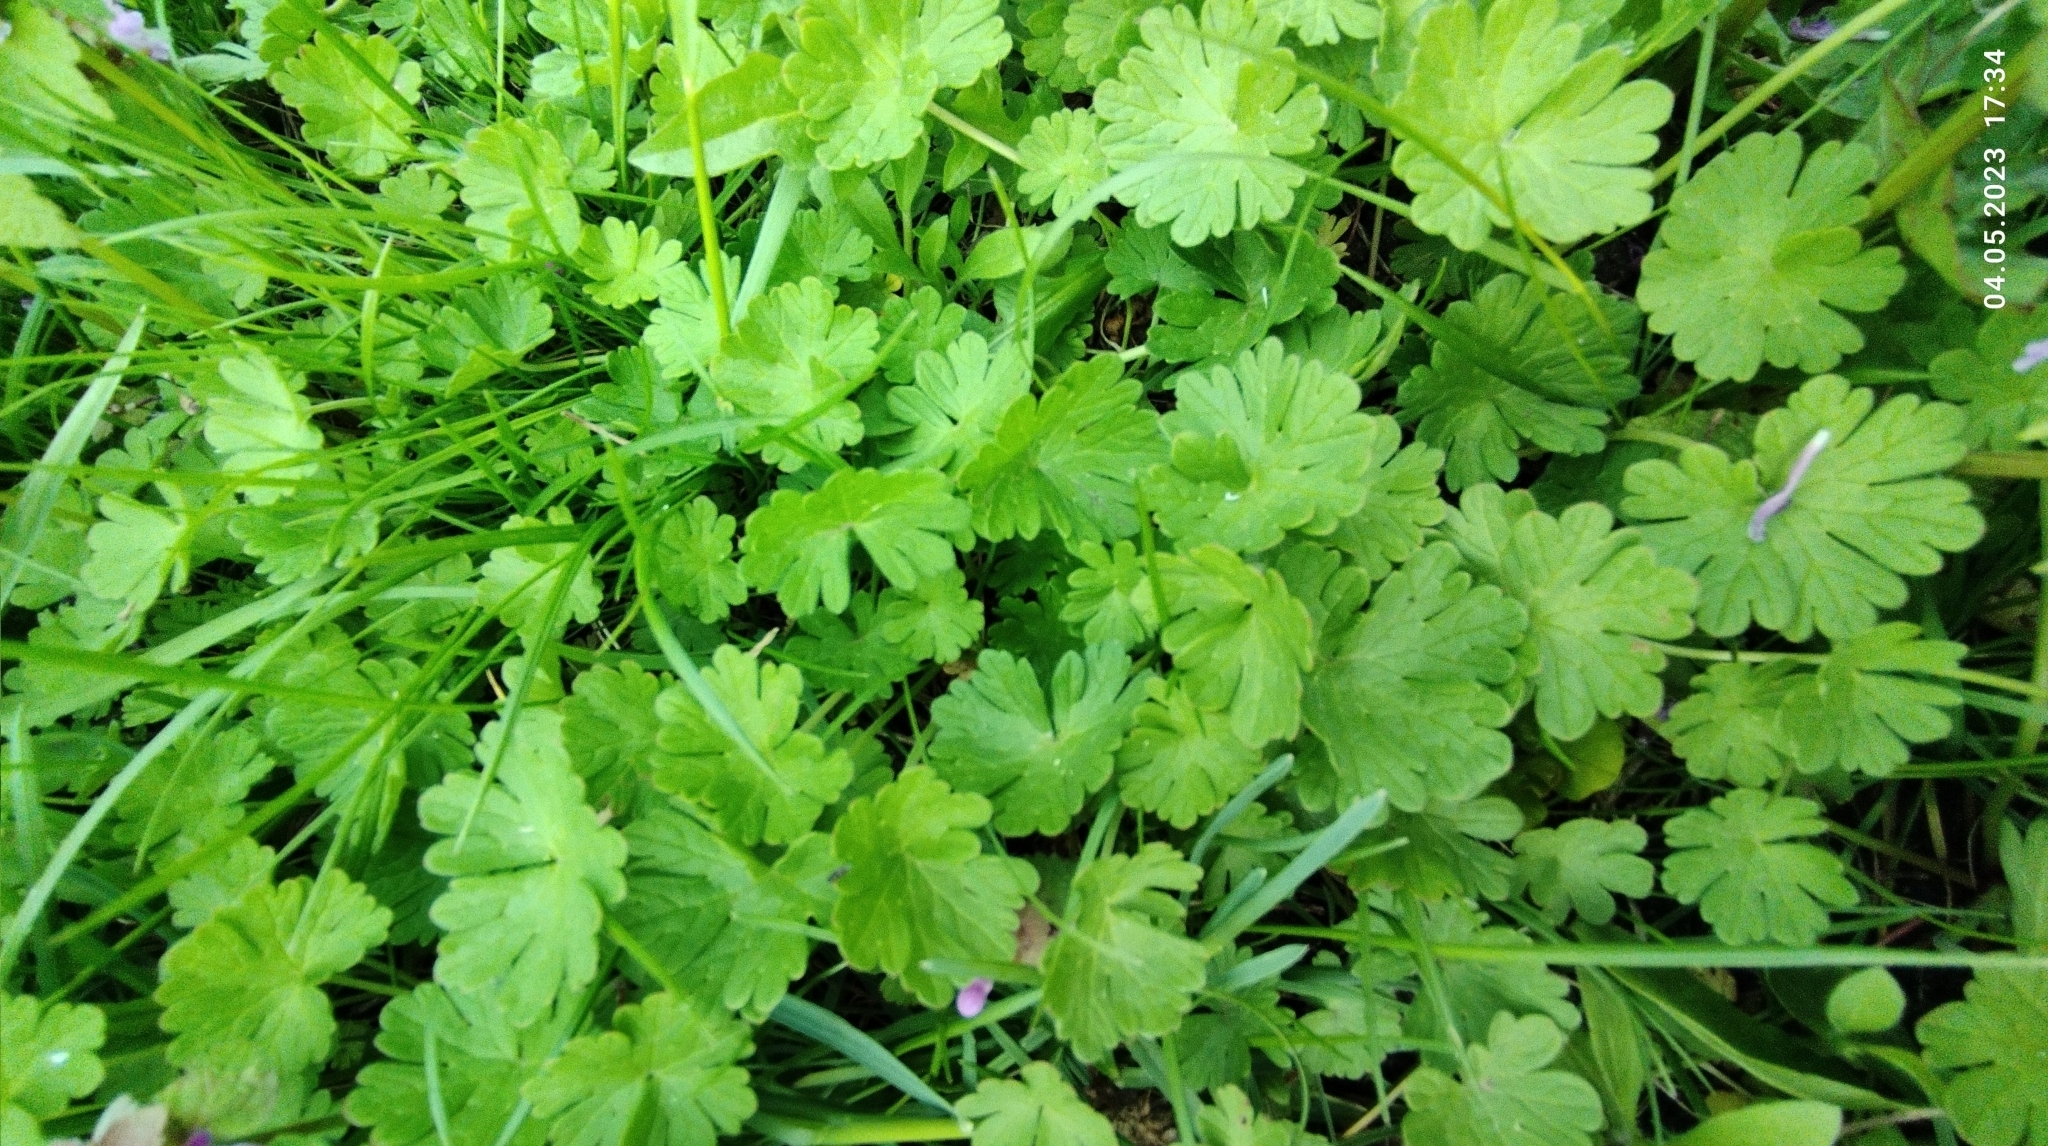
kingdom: Plantae
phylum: Tracheophyta
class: Magnoliopsida
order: Geraniales
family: Geraniaceae
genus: Geranium
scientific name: Geranium pusillum
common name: Small geranium
